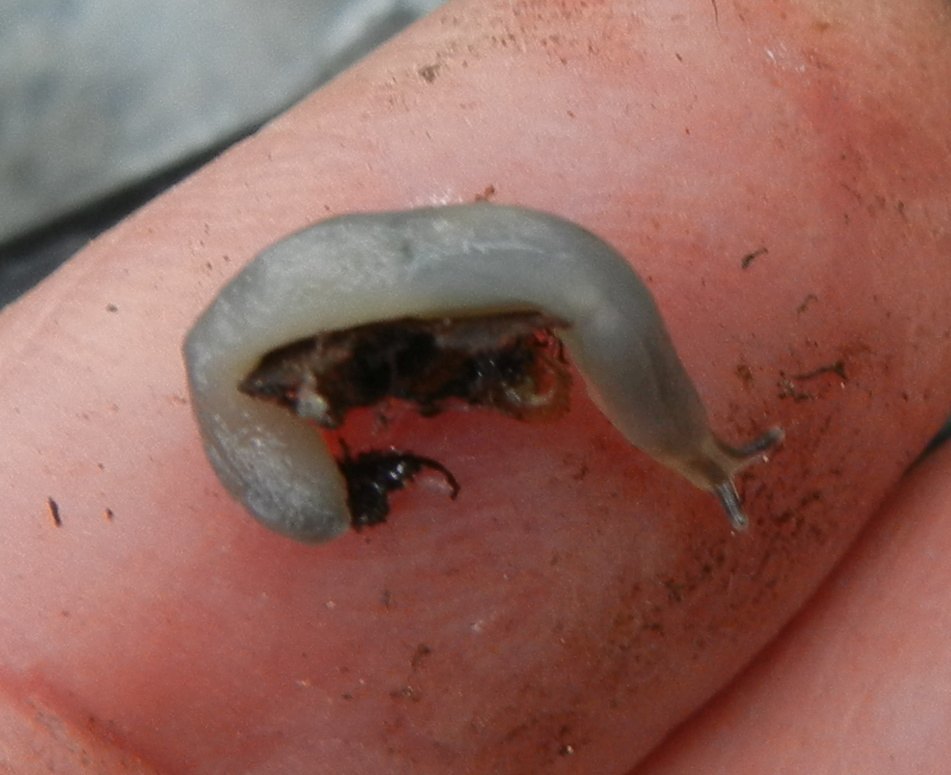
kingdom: Animalia
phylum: Mollusca
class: Gastropoda
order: Stylommatophora
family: Boettgerillidae
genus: Boettgerilla
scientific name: Boettgerilla pallens
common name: Worm slug
